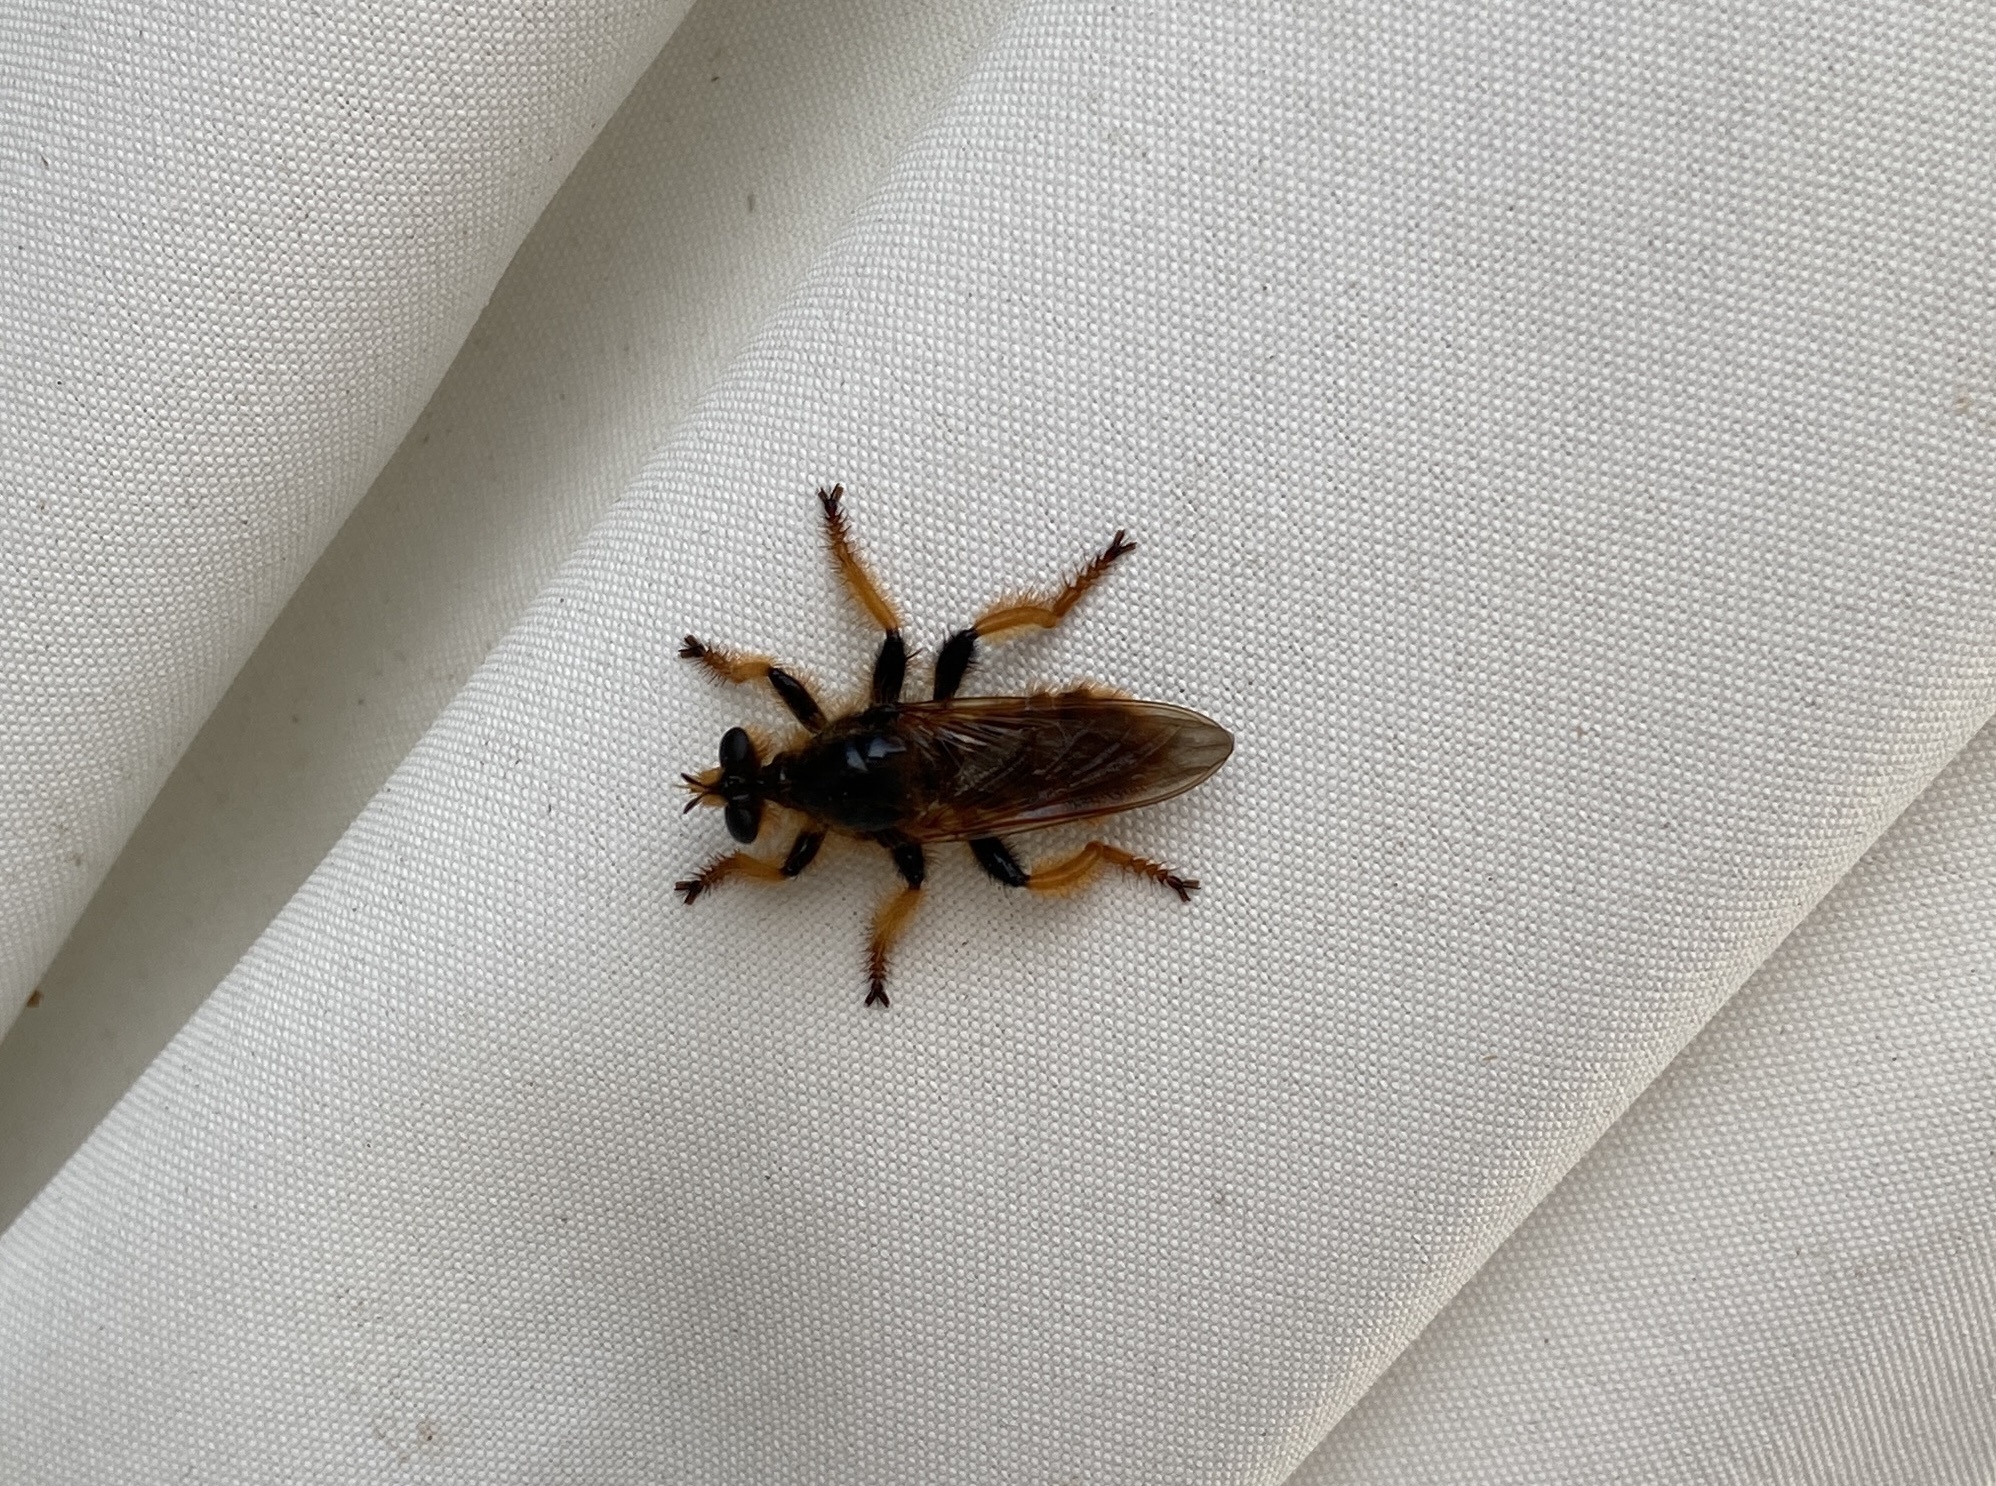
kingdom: Animalia
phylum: Arthropoda
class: Insecta
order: Diptera
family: Asilidae
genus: Pogonosoma
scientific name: Pogonosoma maroccanum
